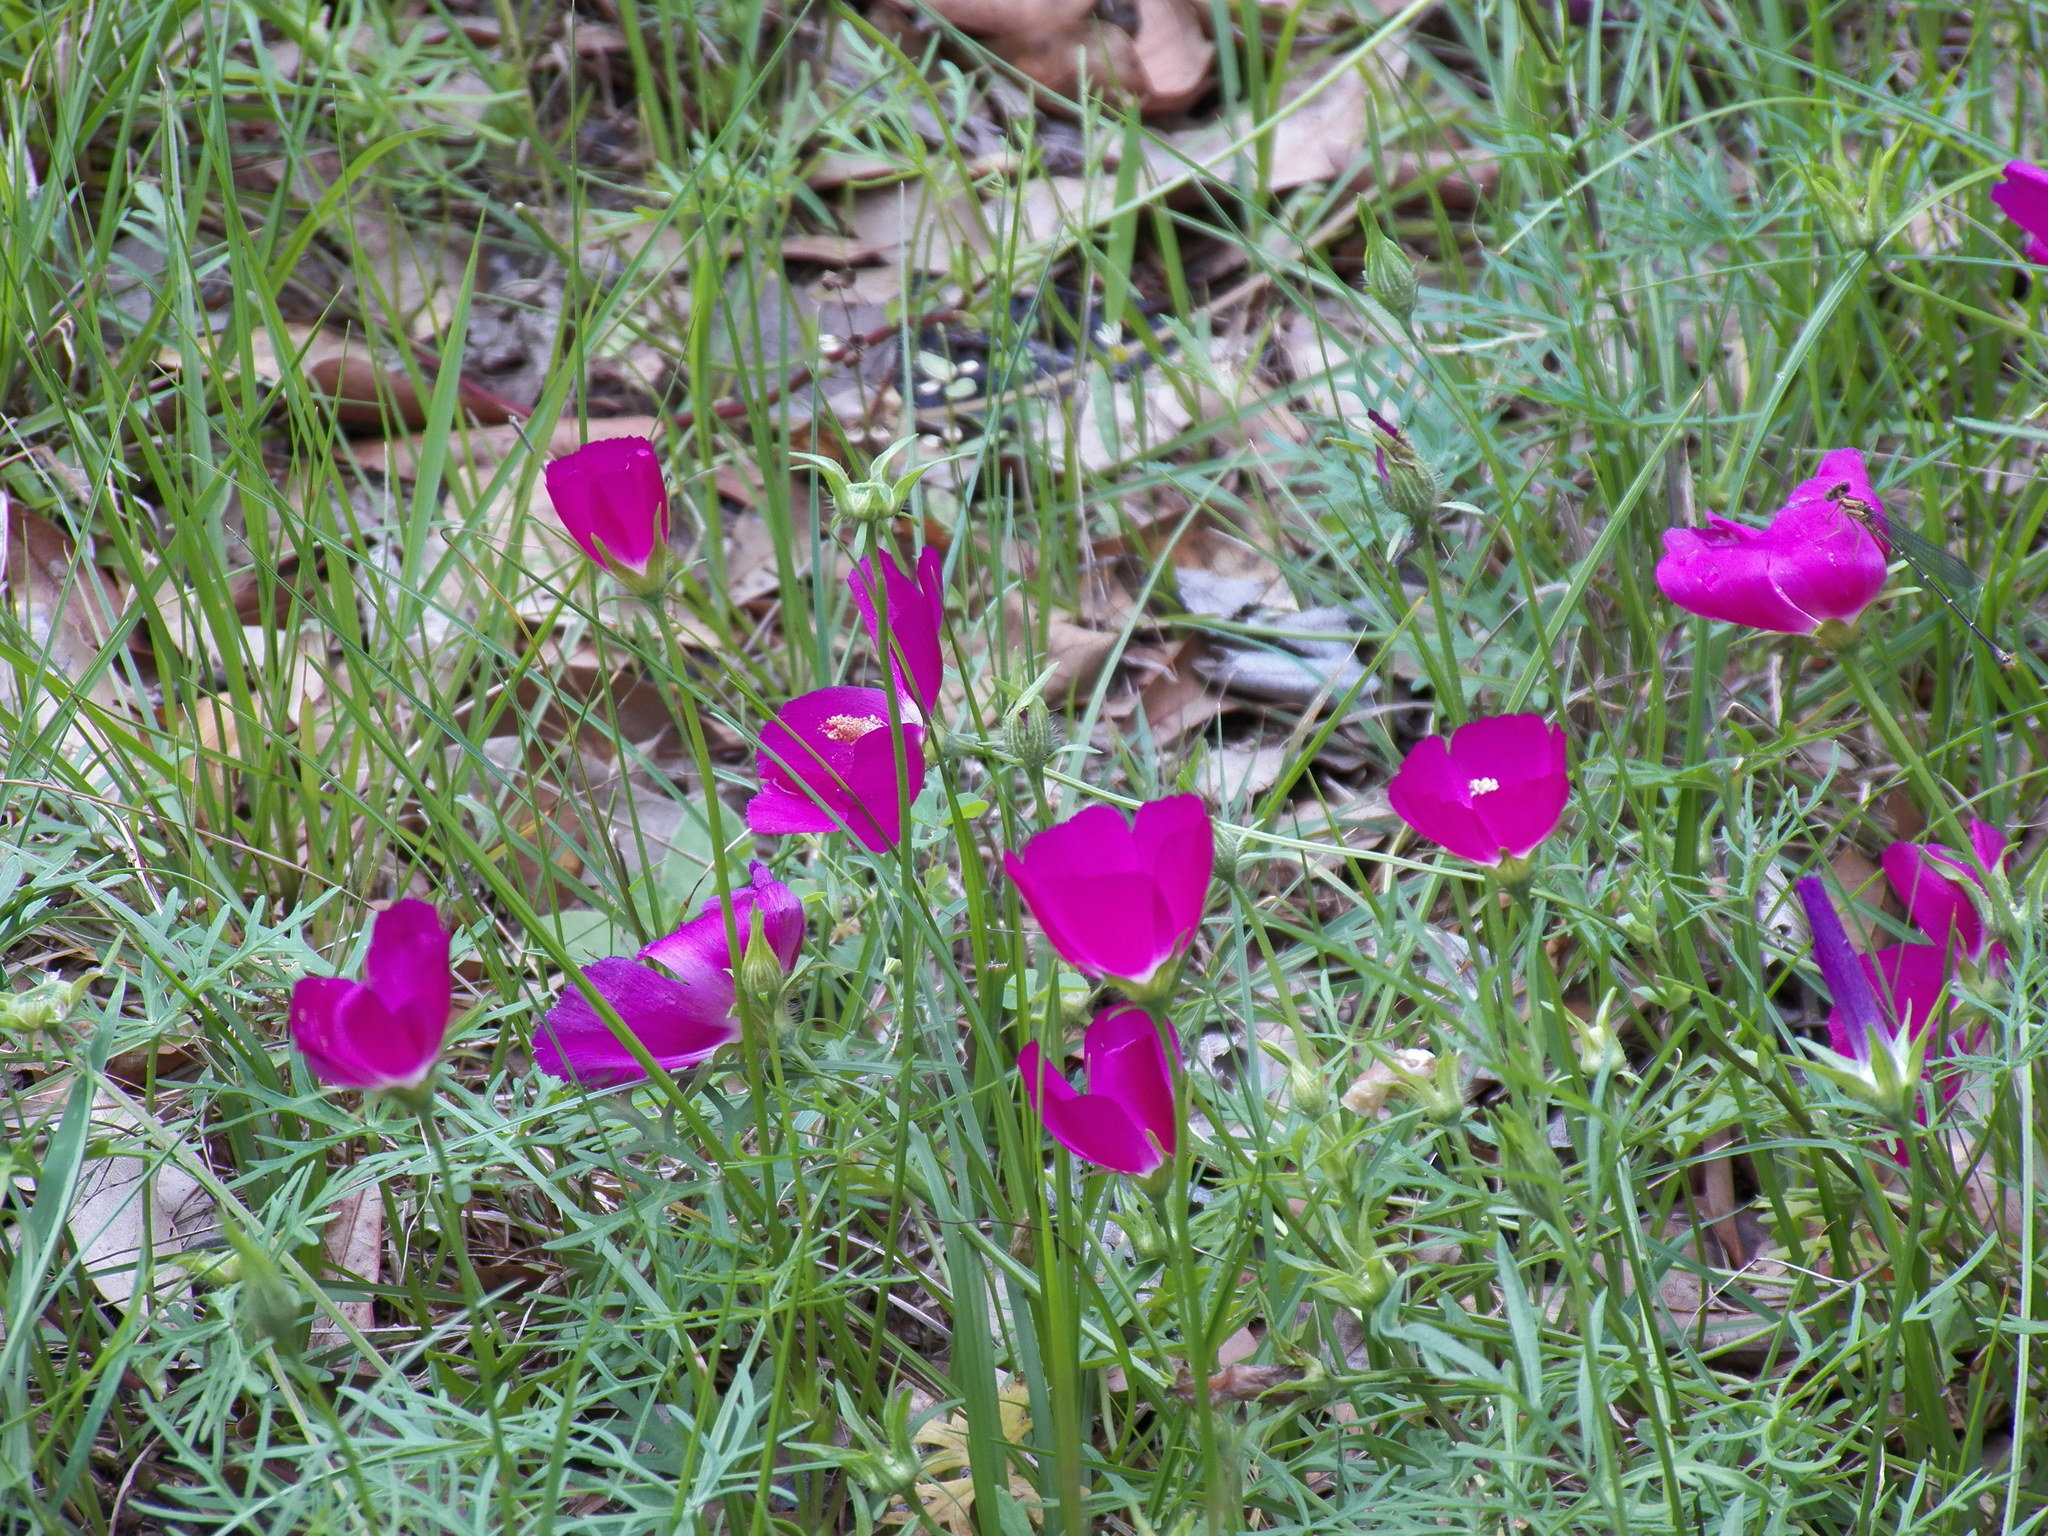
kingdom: Plantae
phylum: Tracheophyta
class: Magnoliopsida
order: Malvales
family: Malvaceae
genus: Callirhoe
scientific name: Callirhoe involucrata
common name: Purple poppy-mallow
